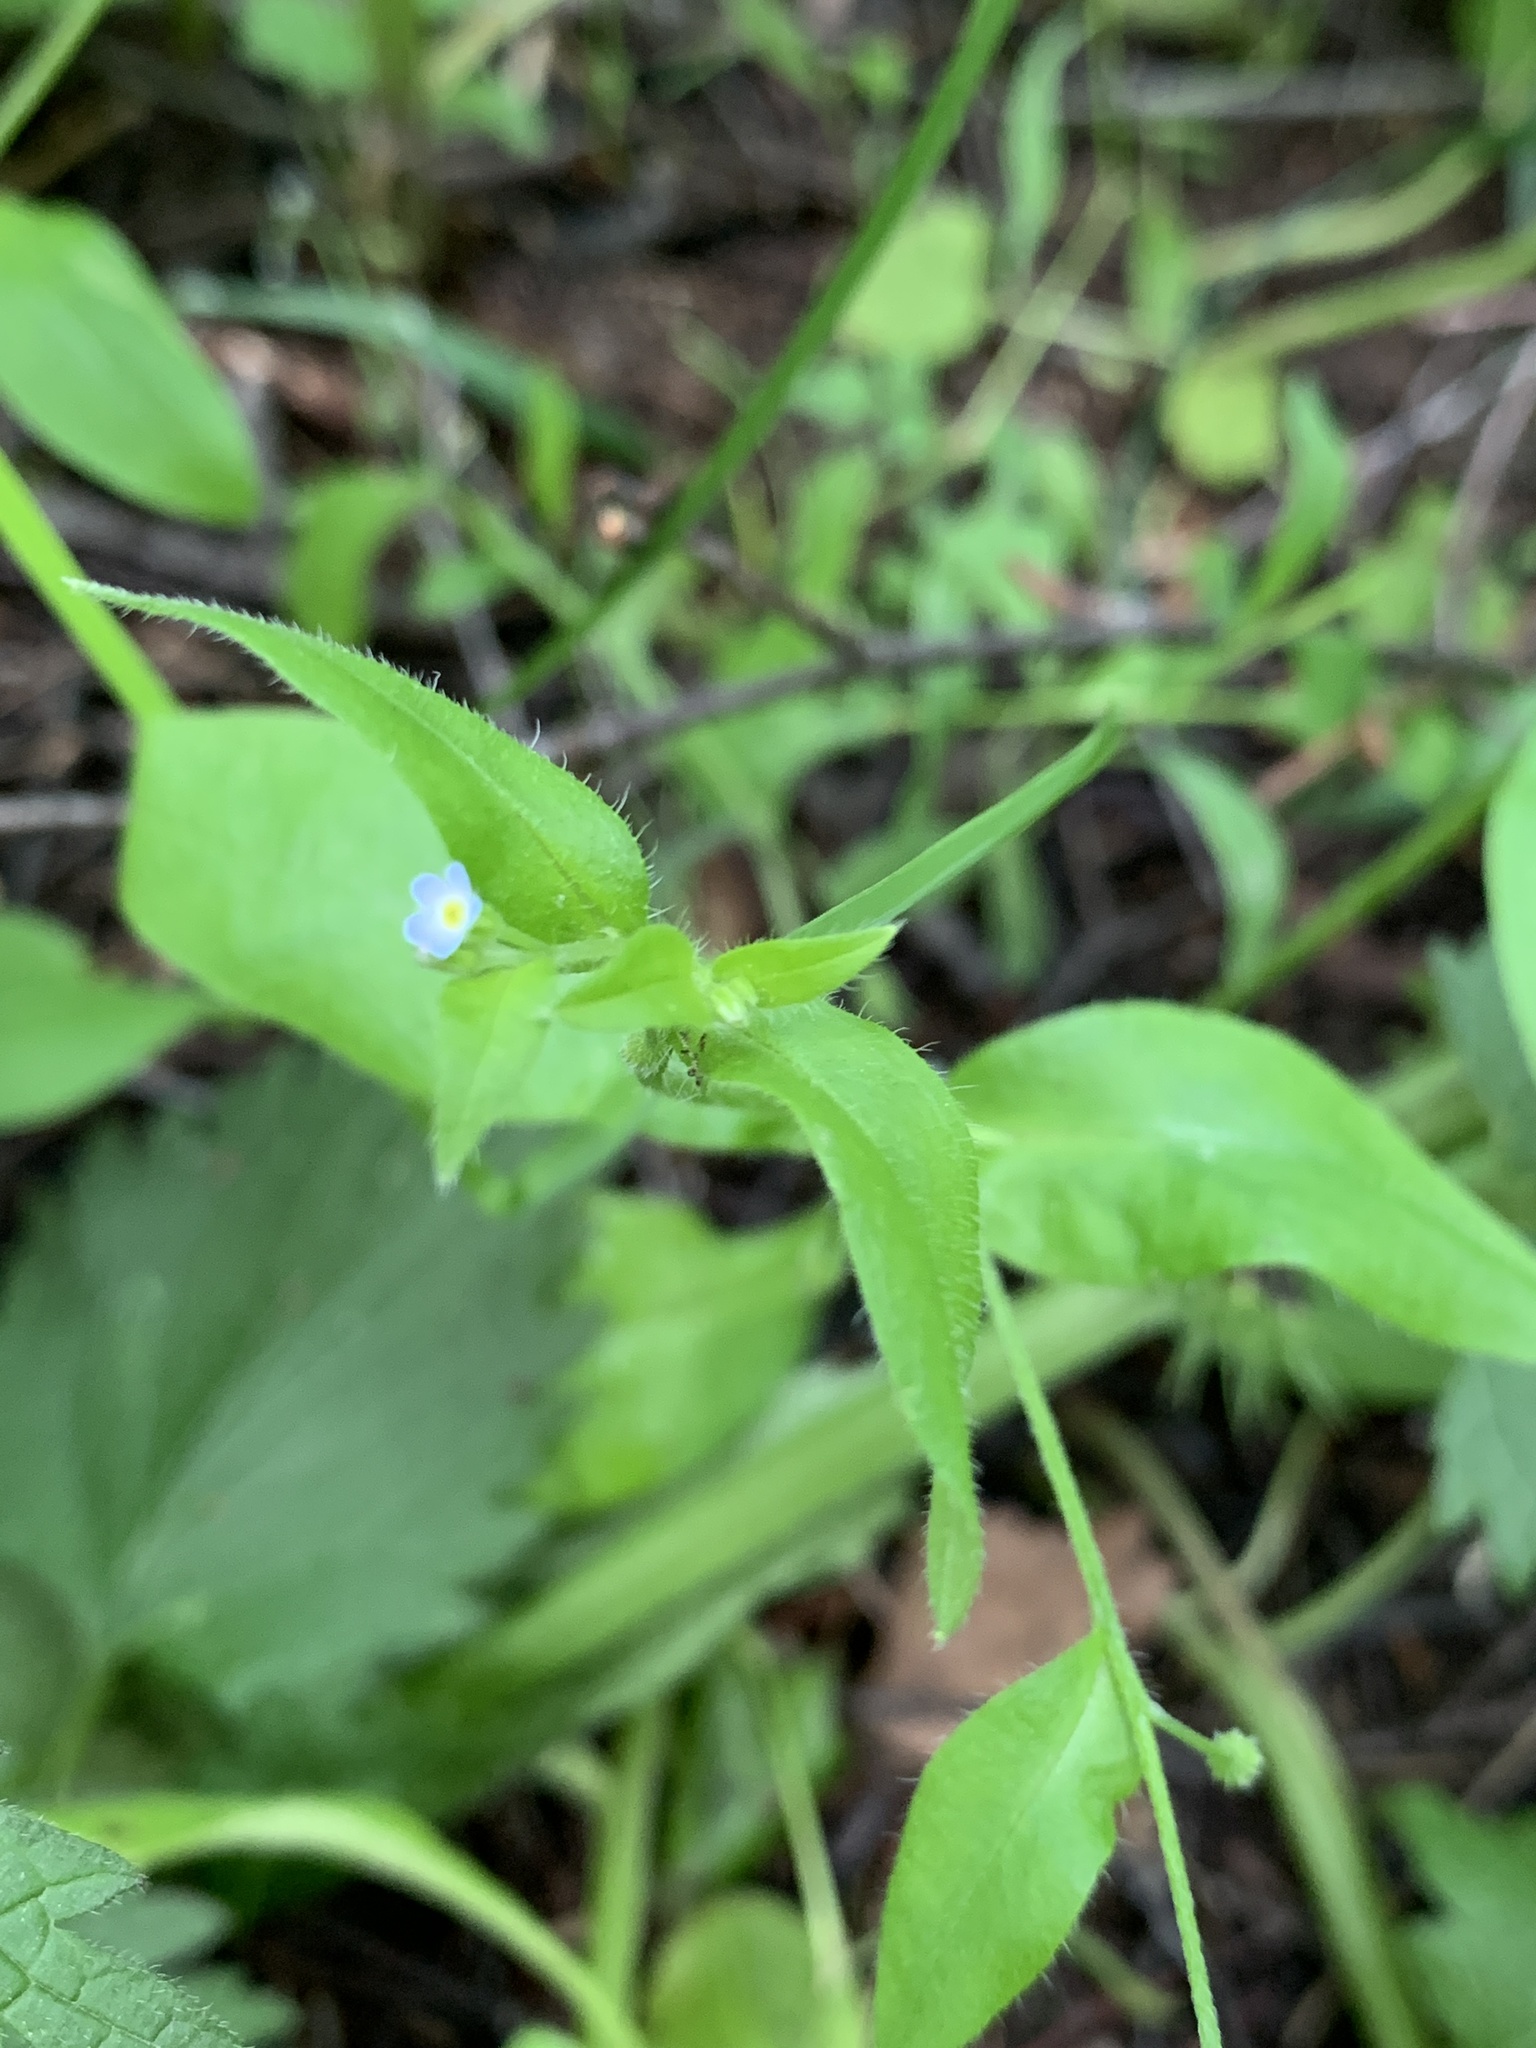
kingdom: Plantae
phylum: Tracheophyta
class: Magnoliopsida
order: Boraginales
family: Boraginaceae
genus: Myosotis
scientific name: Myosotis sparsiflora
